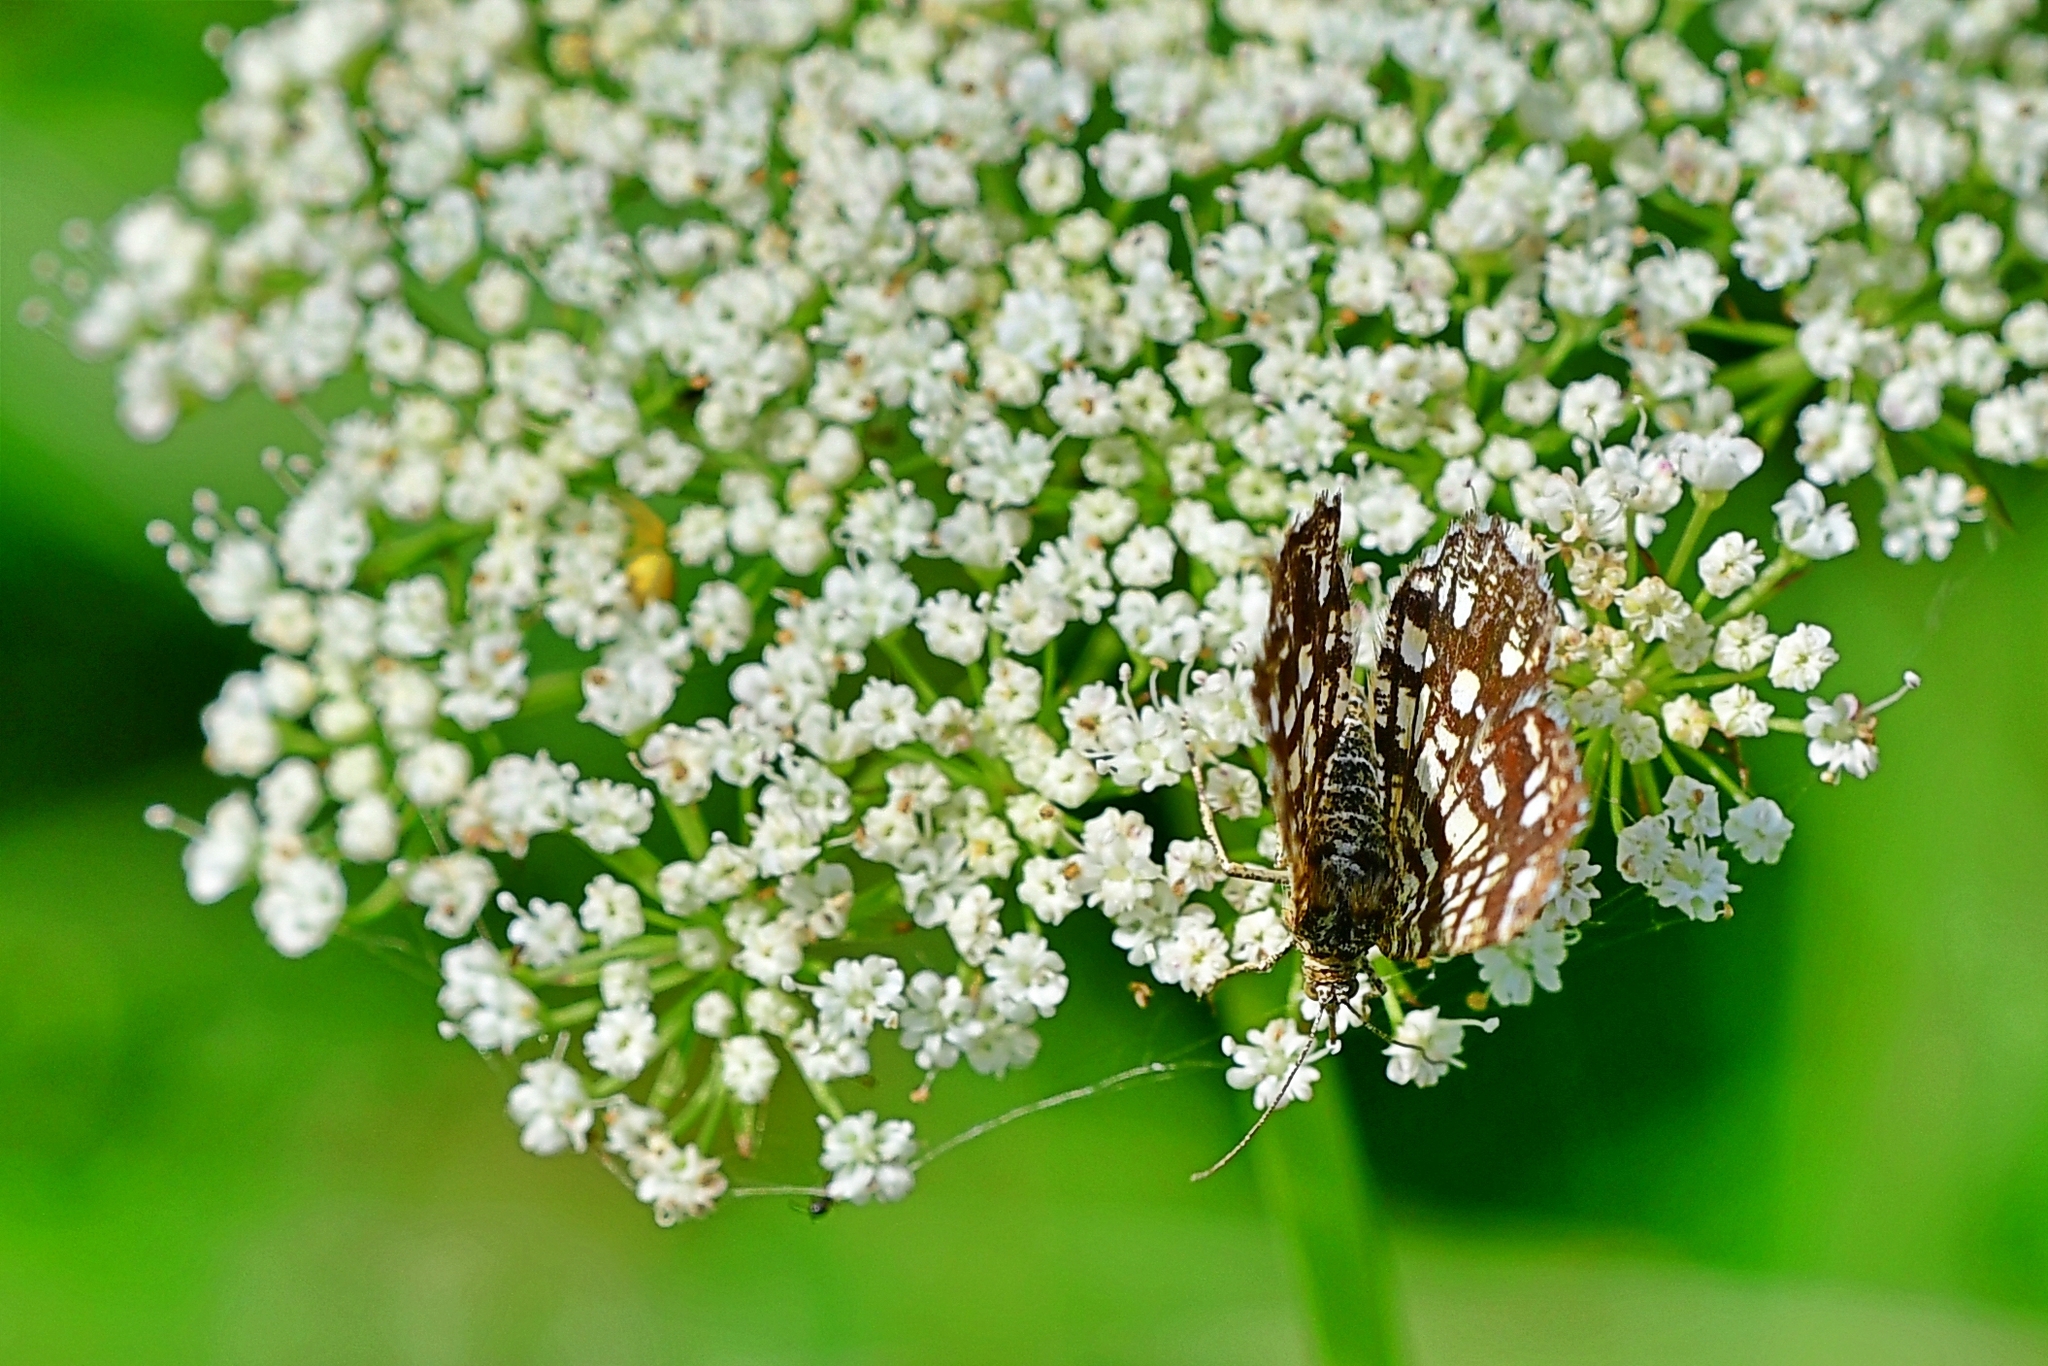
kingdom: Animalia
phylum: Arthropoda
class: Insecta
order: Lepidoptera
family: Geometridae
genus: Chiasmia
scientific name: Chiasmia clathrata
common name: Latticed heath
